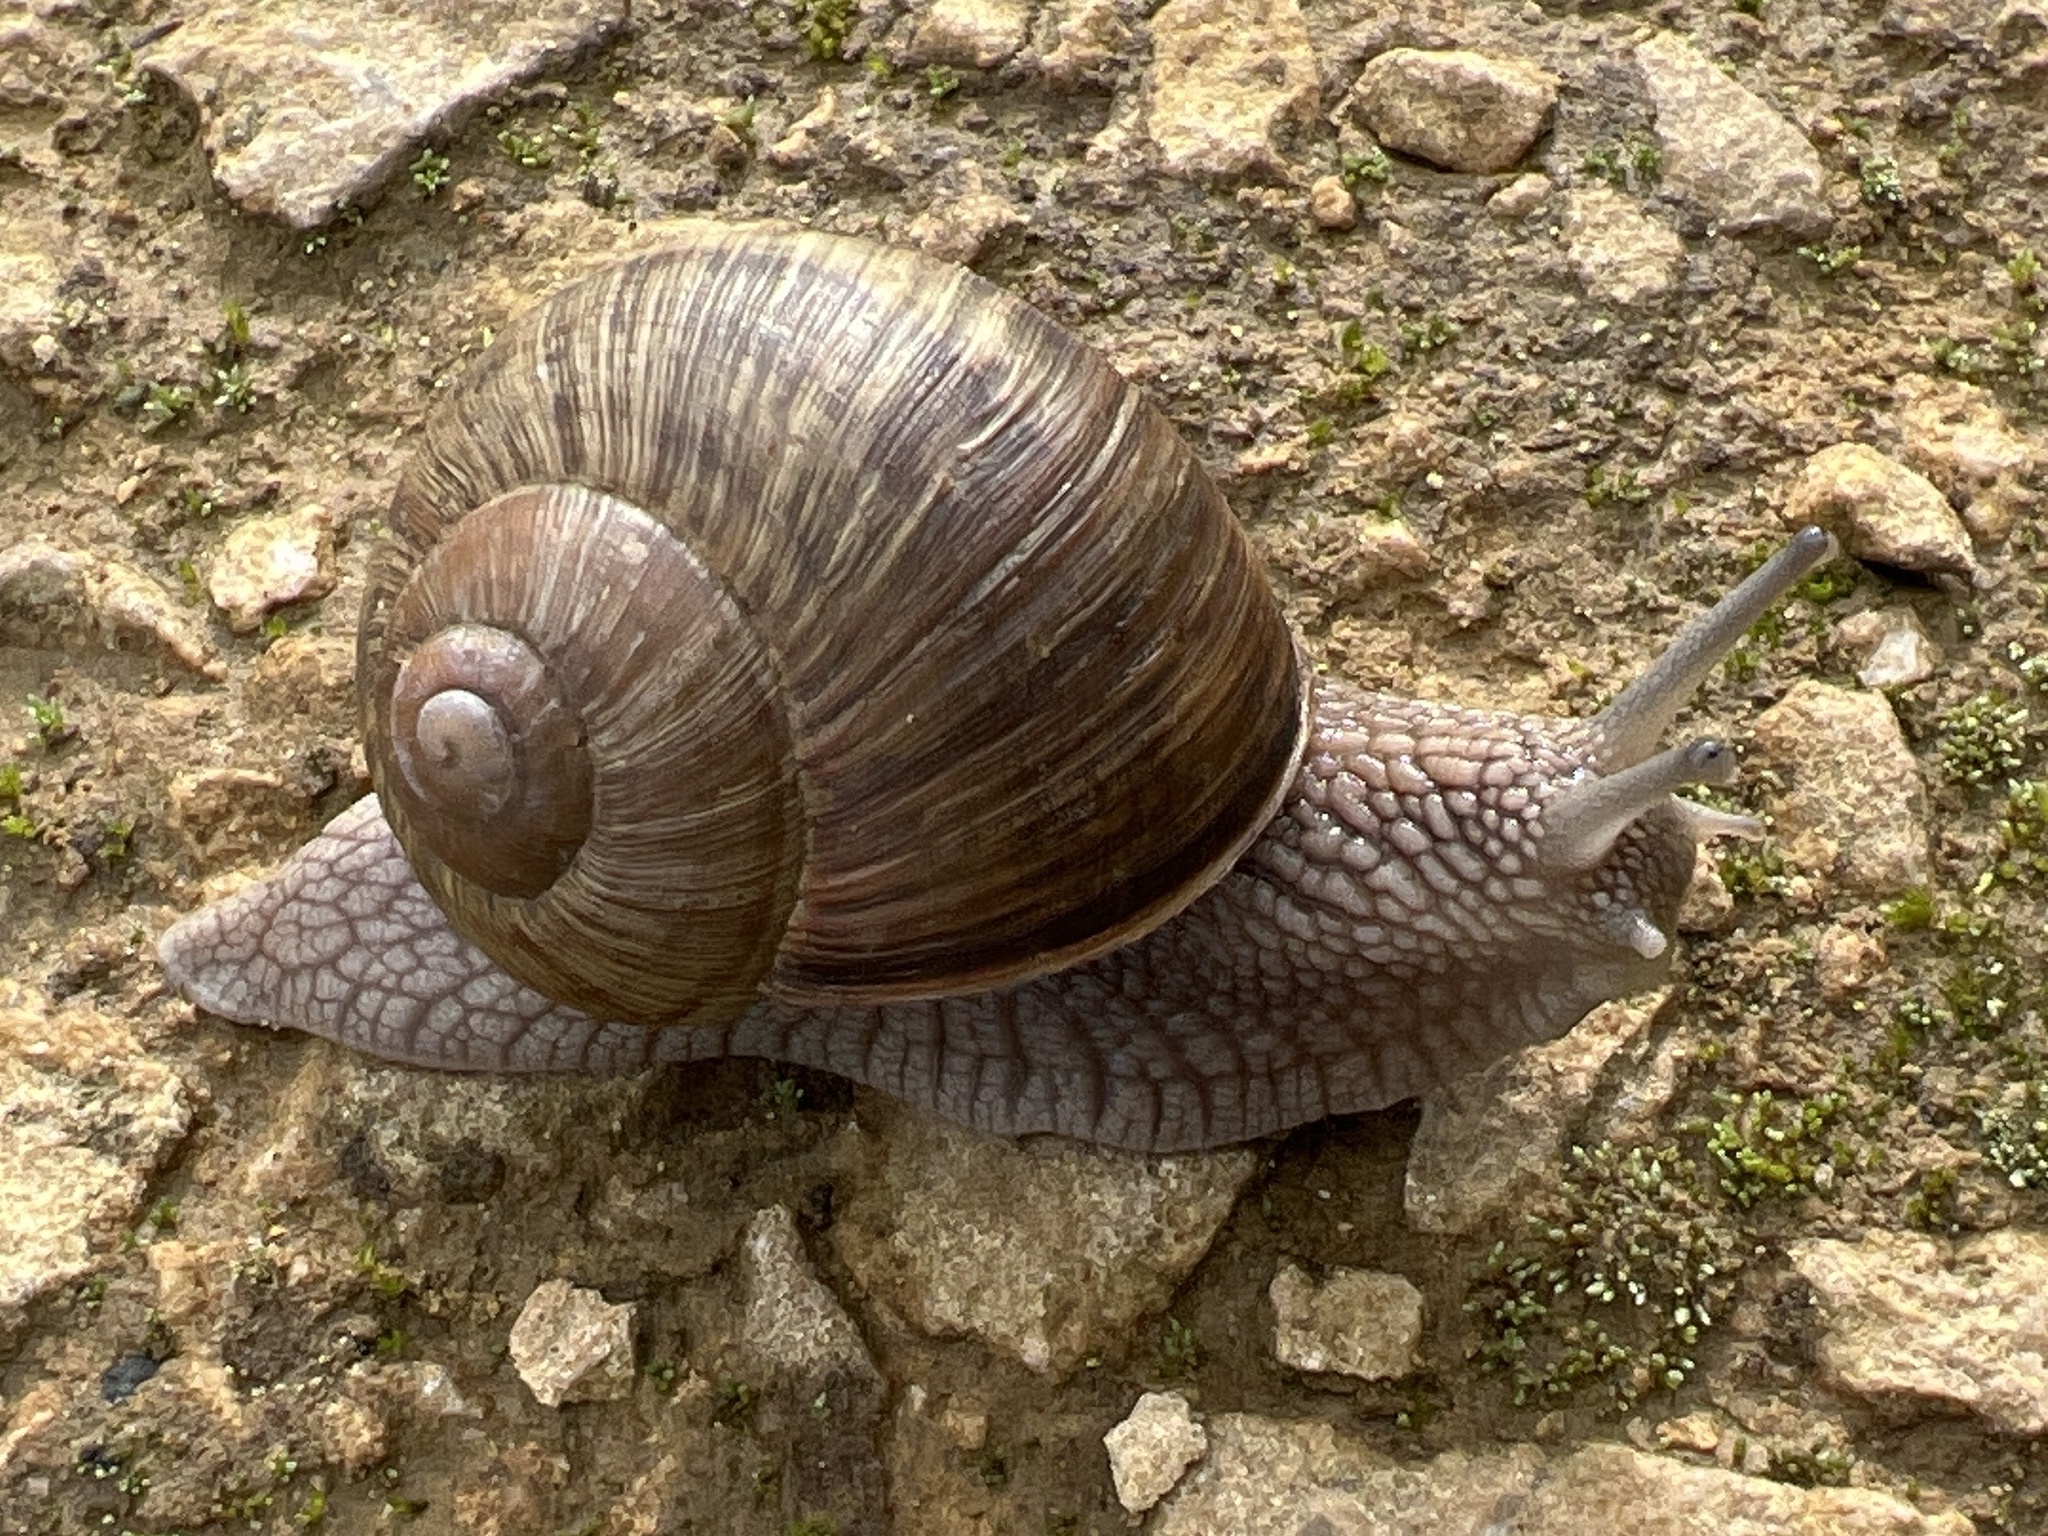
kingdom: Animalia
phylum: Mollusca
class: Gastropoda
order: Stylommatophora
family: Helicidae
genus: Helix
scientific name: Helix pomatia
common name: Roman snail
